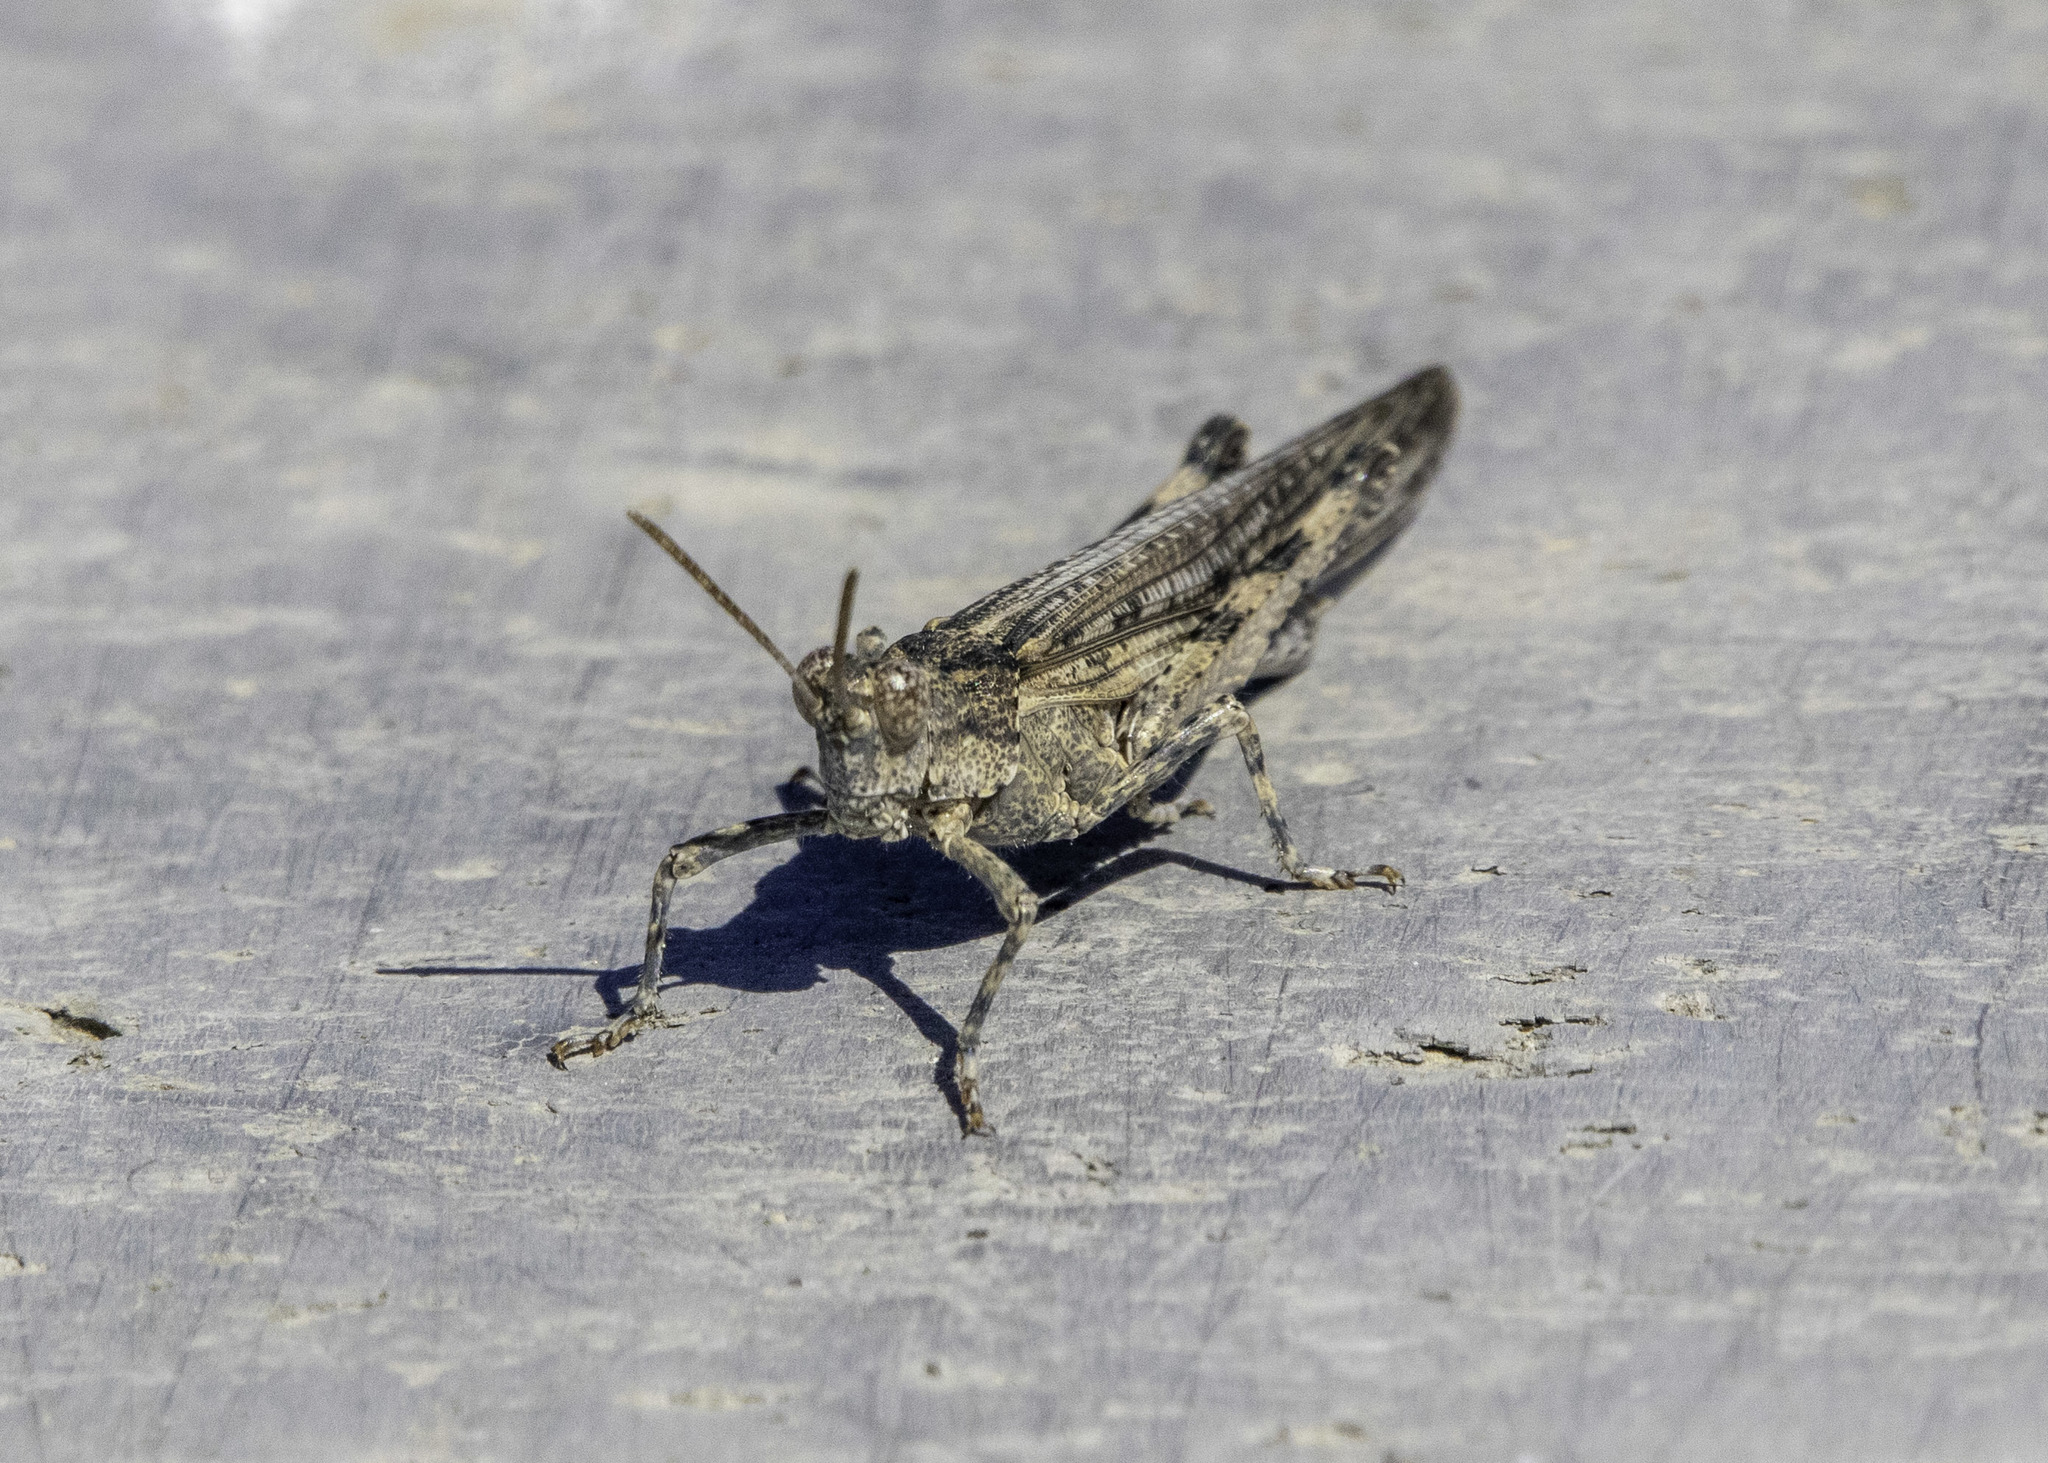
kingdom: Animalia
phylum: Arthropoda
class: Insecta
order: Orthoptera
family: Acrididae
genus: Anconia
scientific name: Anconia integra
